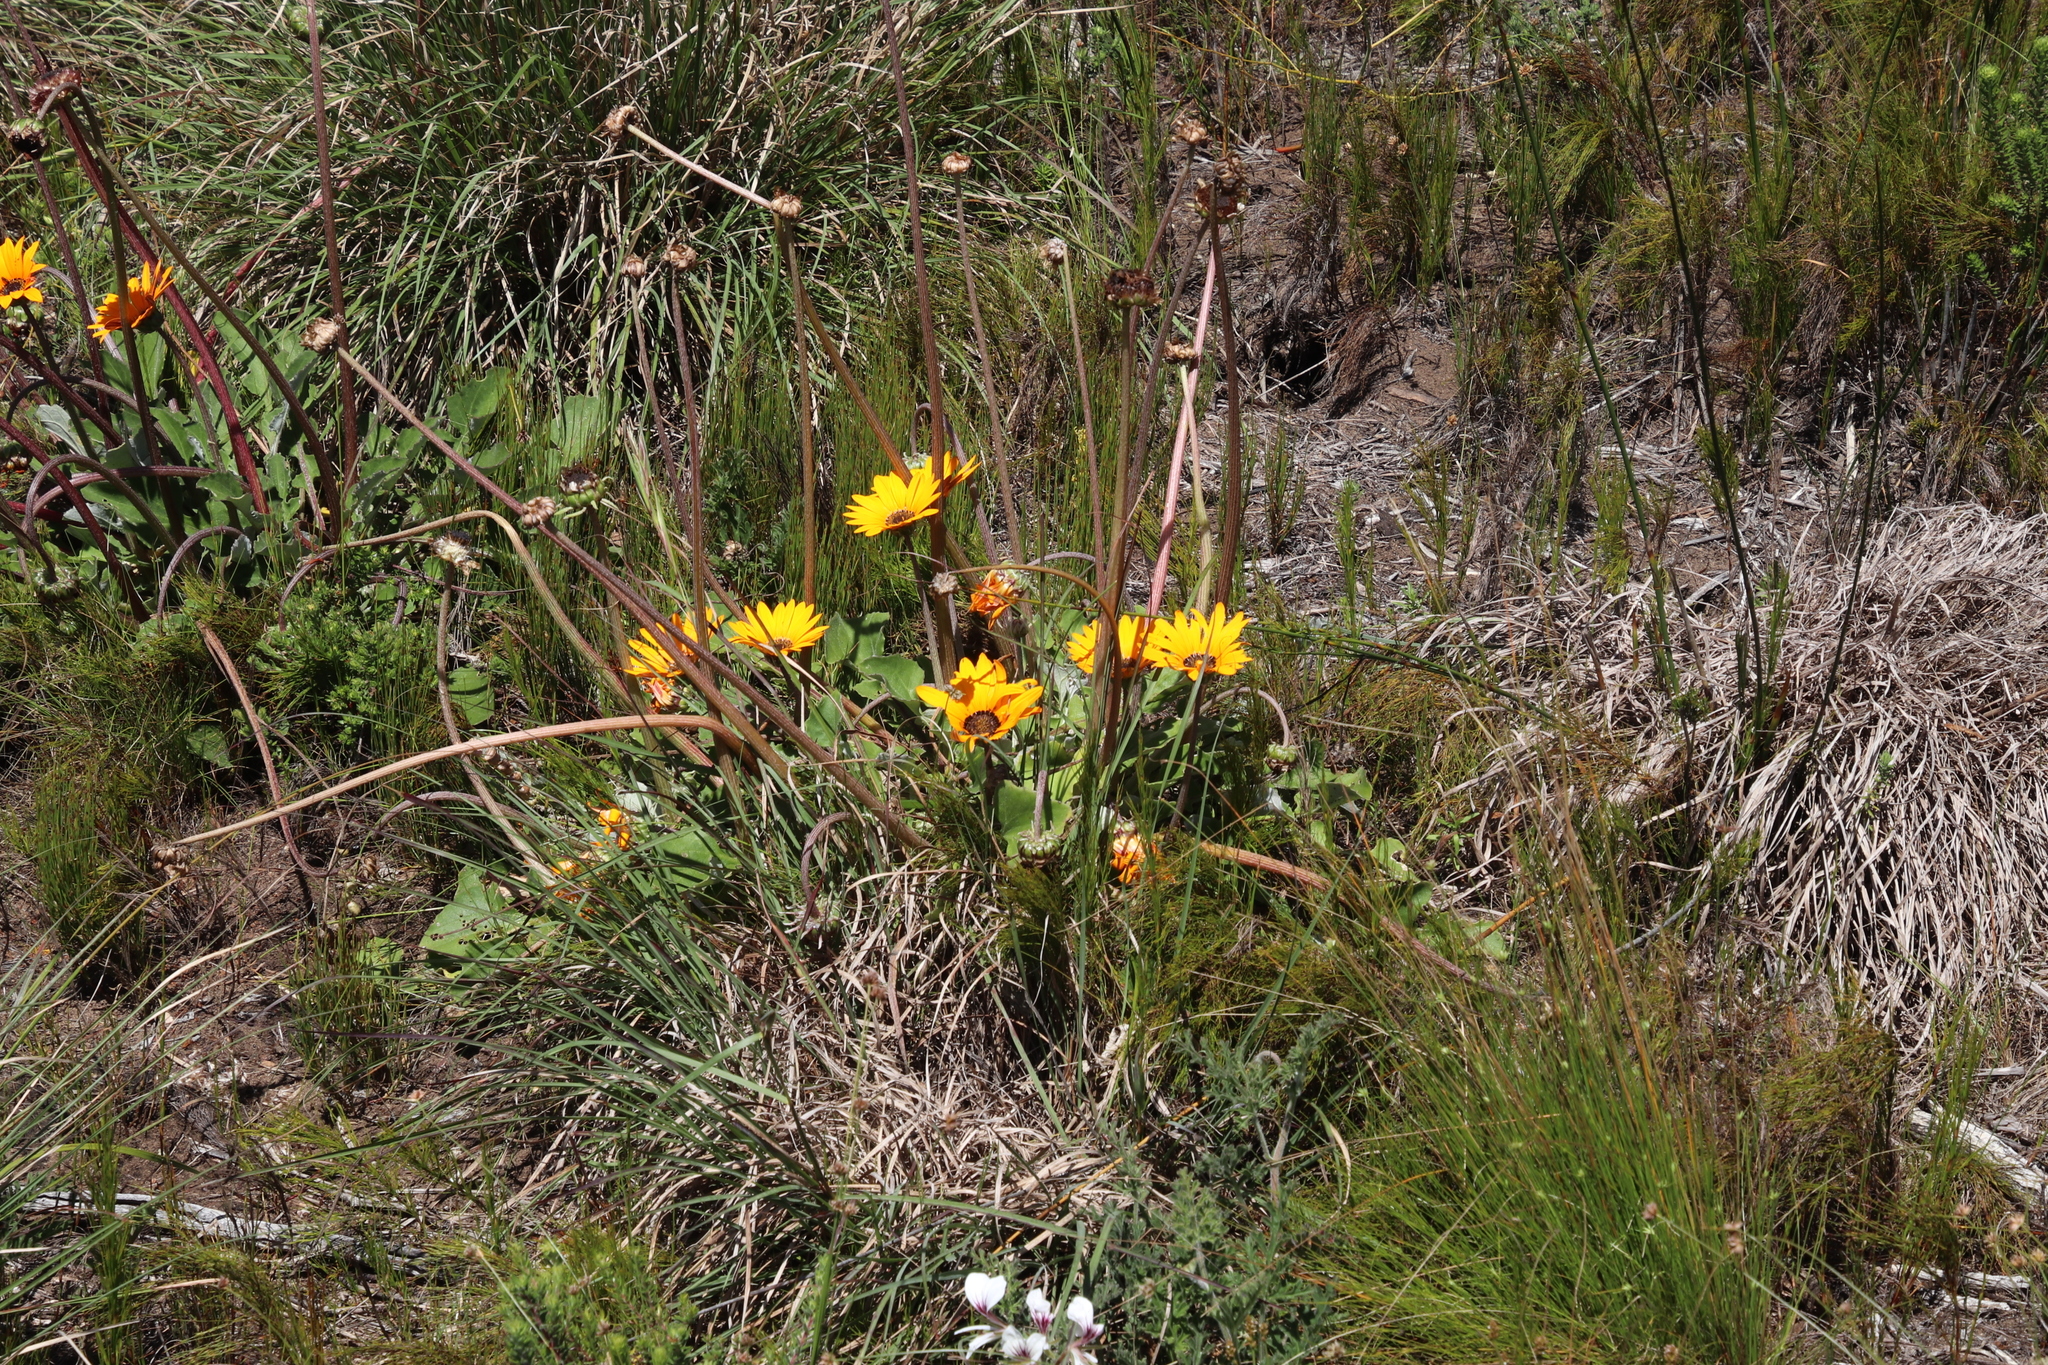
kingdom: Plantae
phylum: Tracheophyta
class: Magnoliopsida
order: Asterales
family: Asteraceae
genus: Arctotis
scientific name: Arctotis acaulis
